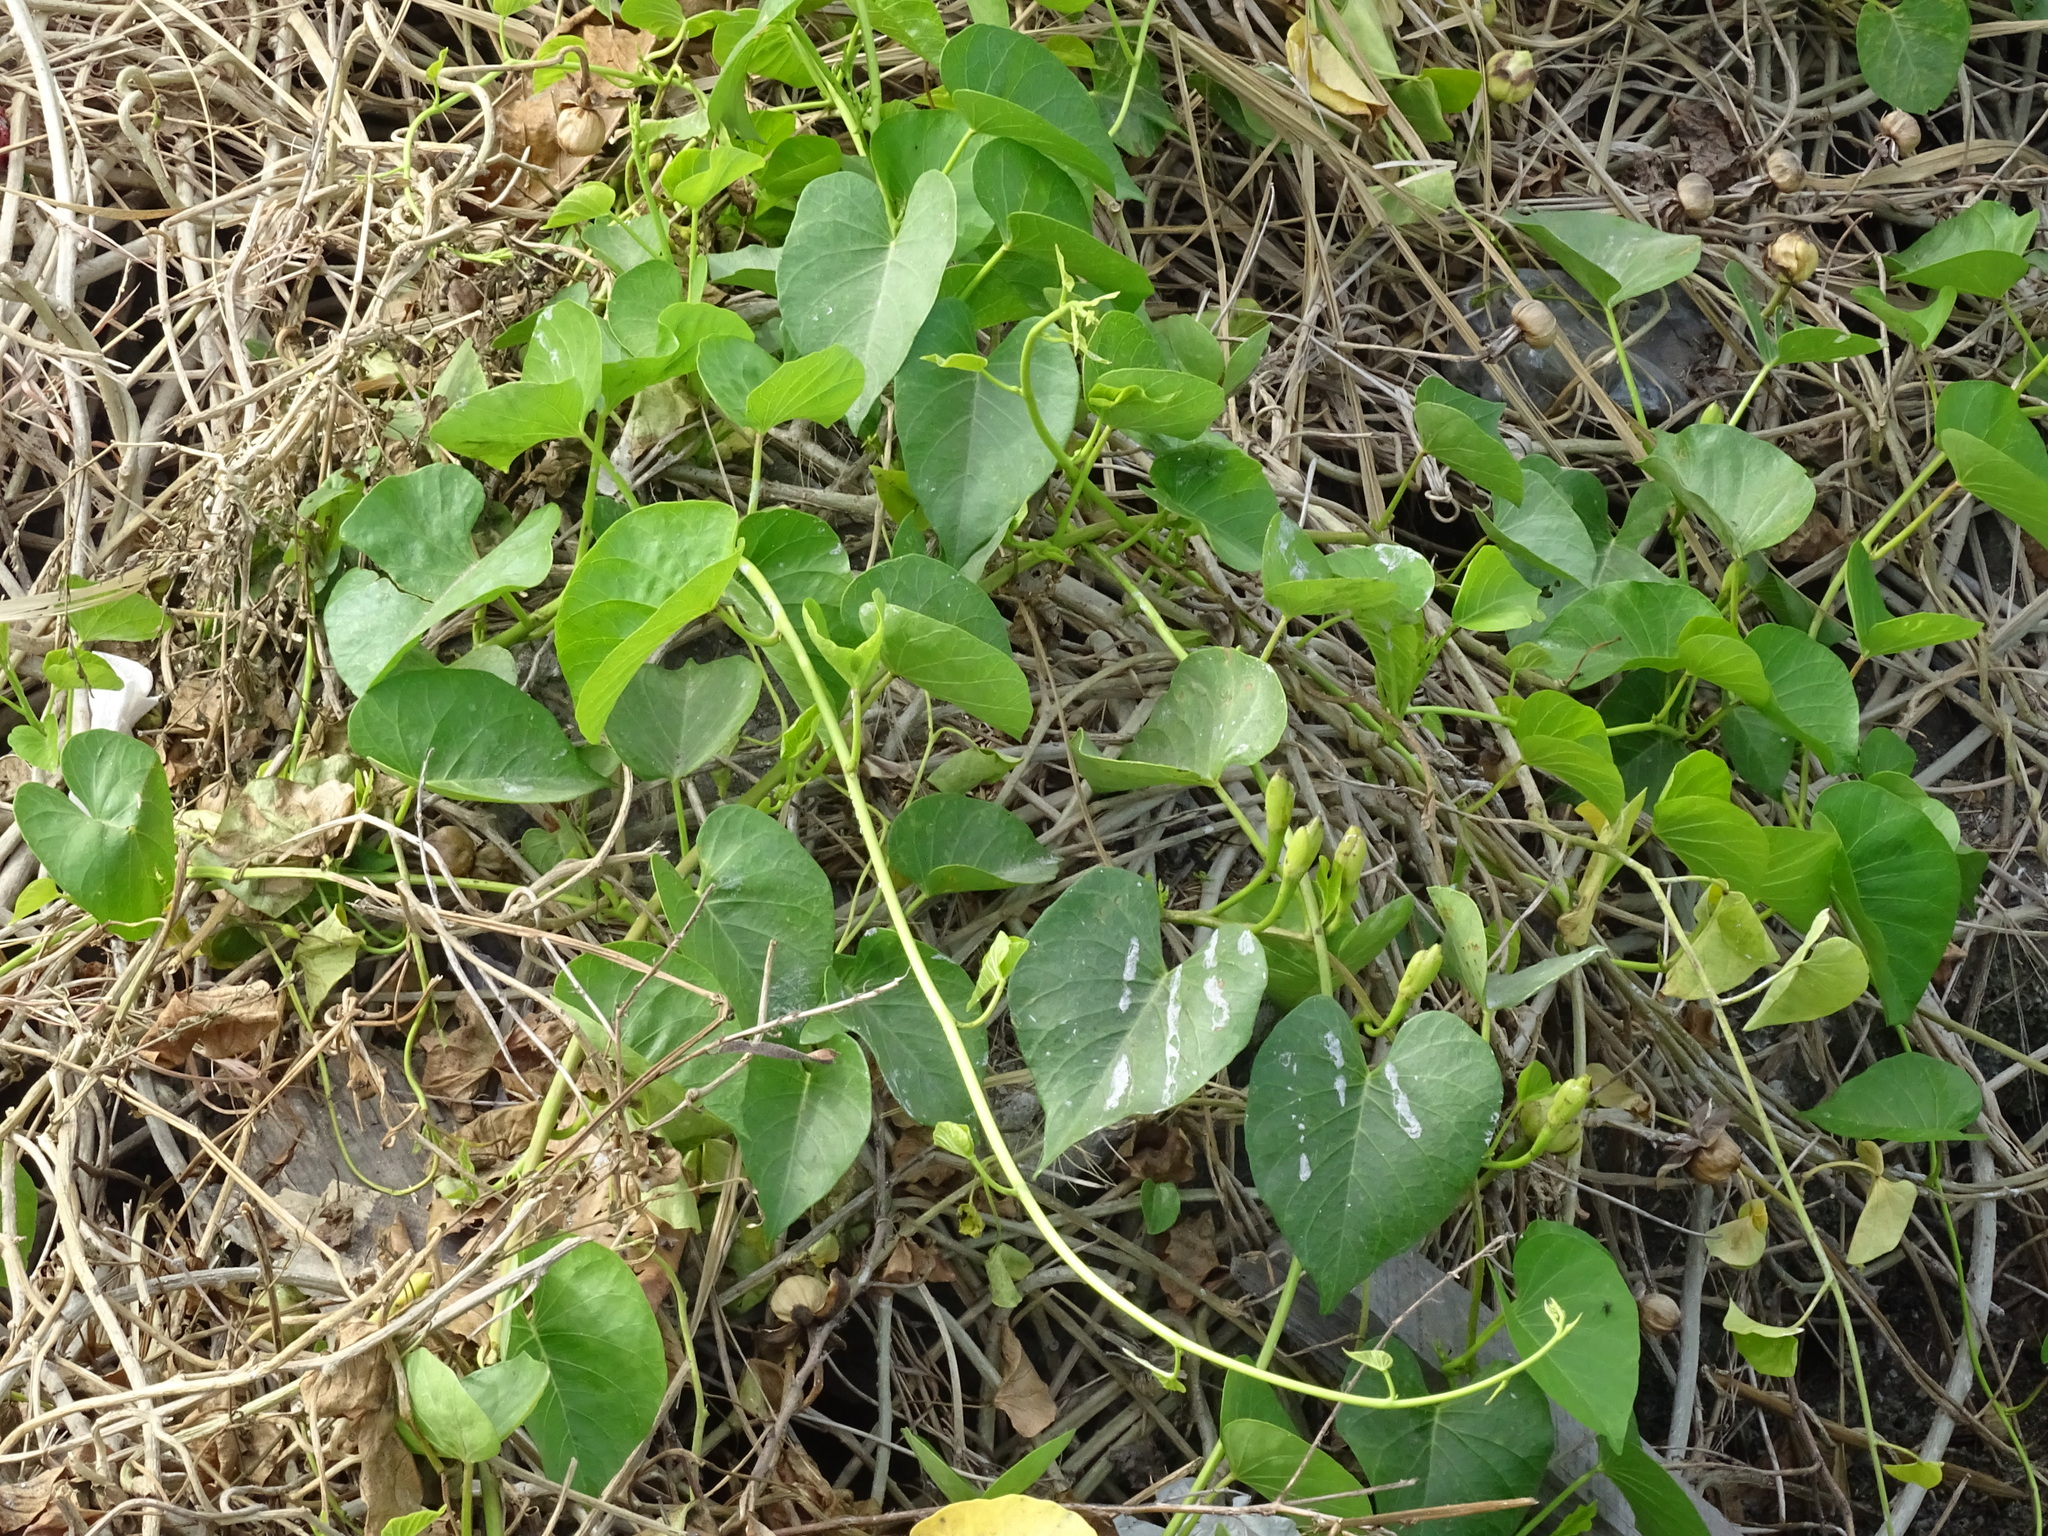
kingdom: Plantae
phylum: Tracheophyta
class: Magnoliopsida
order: Solanales
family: Convolvulaceae
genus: Ipomoea
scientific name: Ipomoea violacea
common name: Beach moonflower
